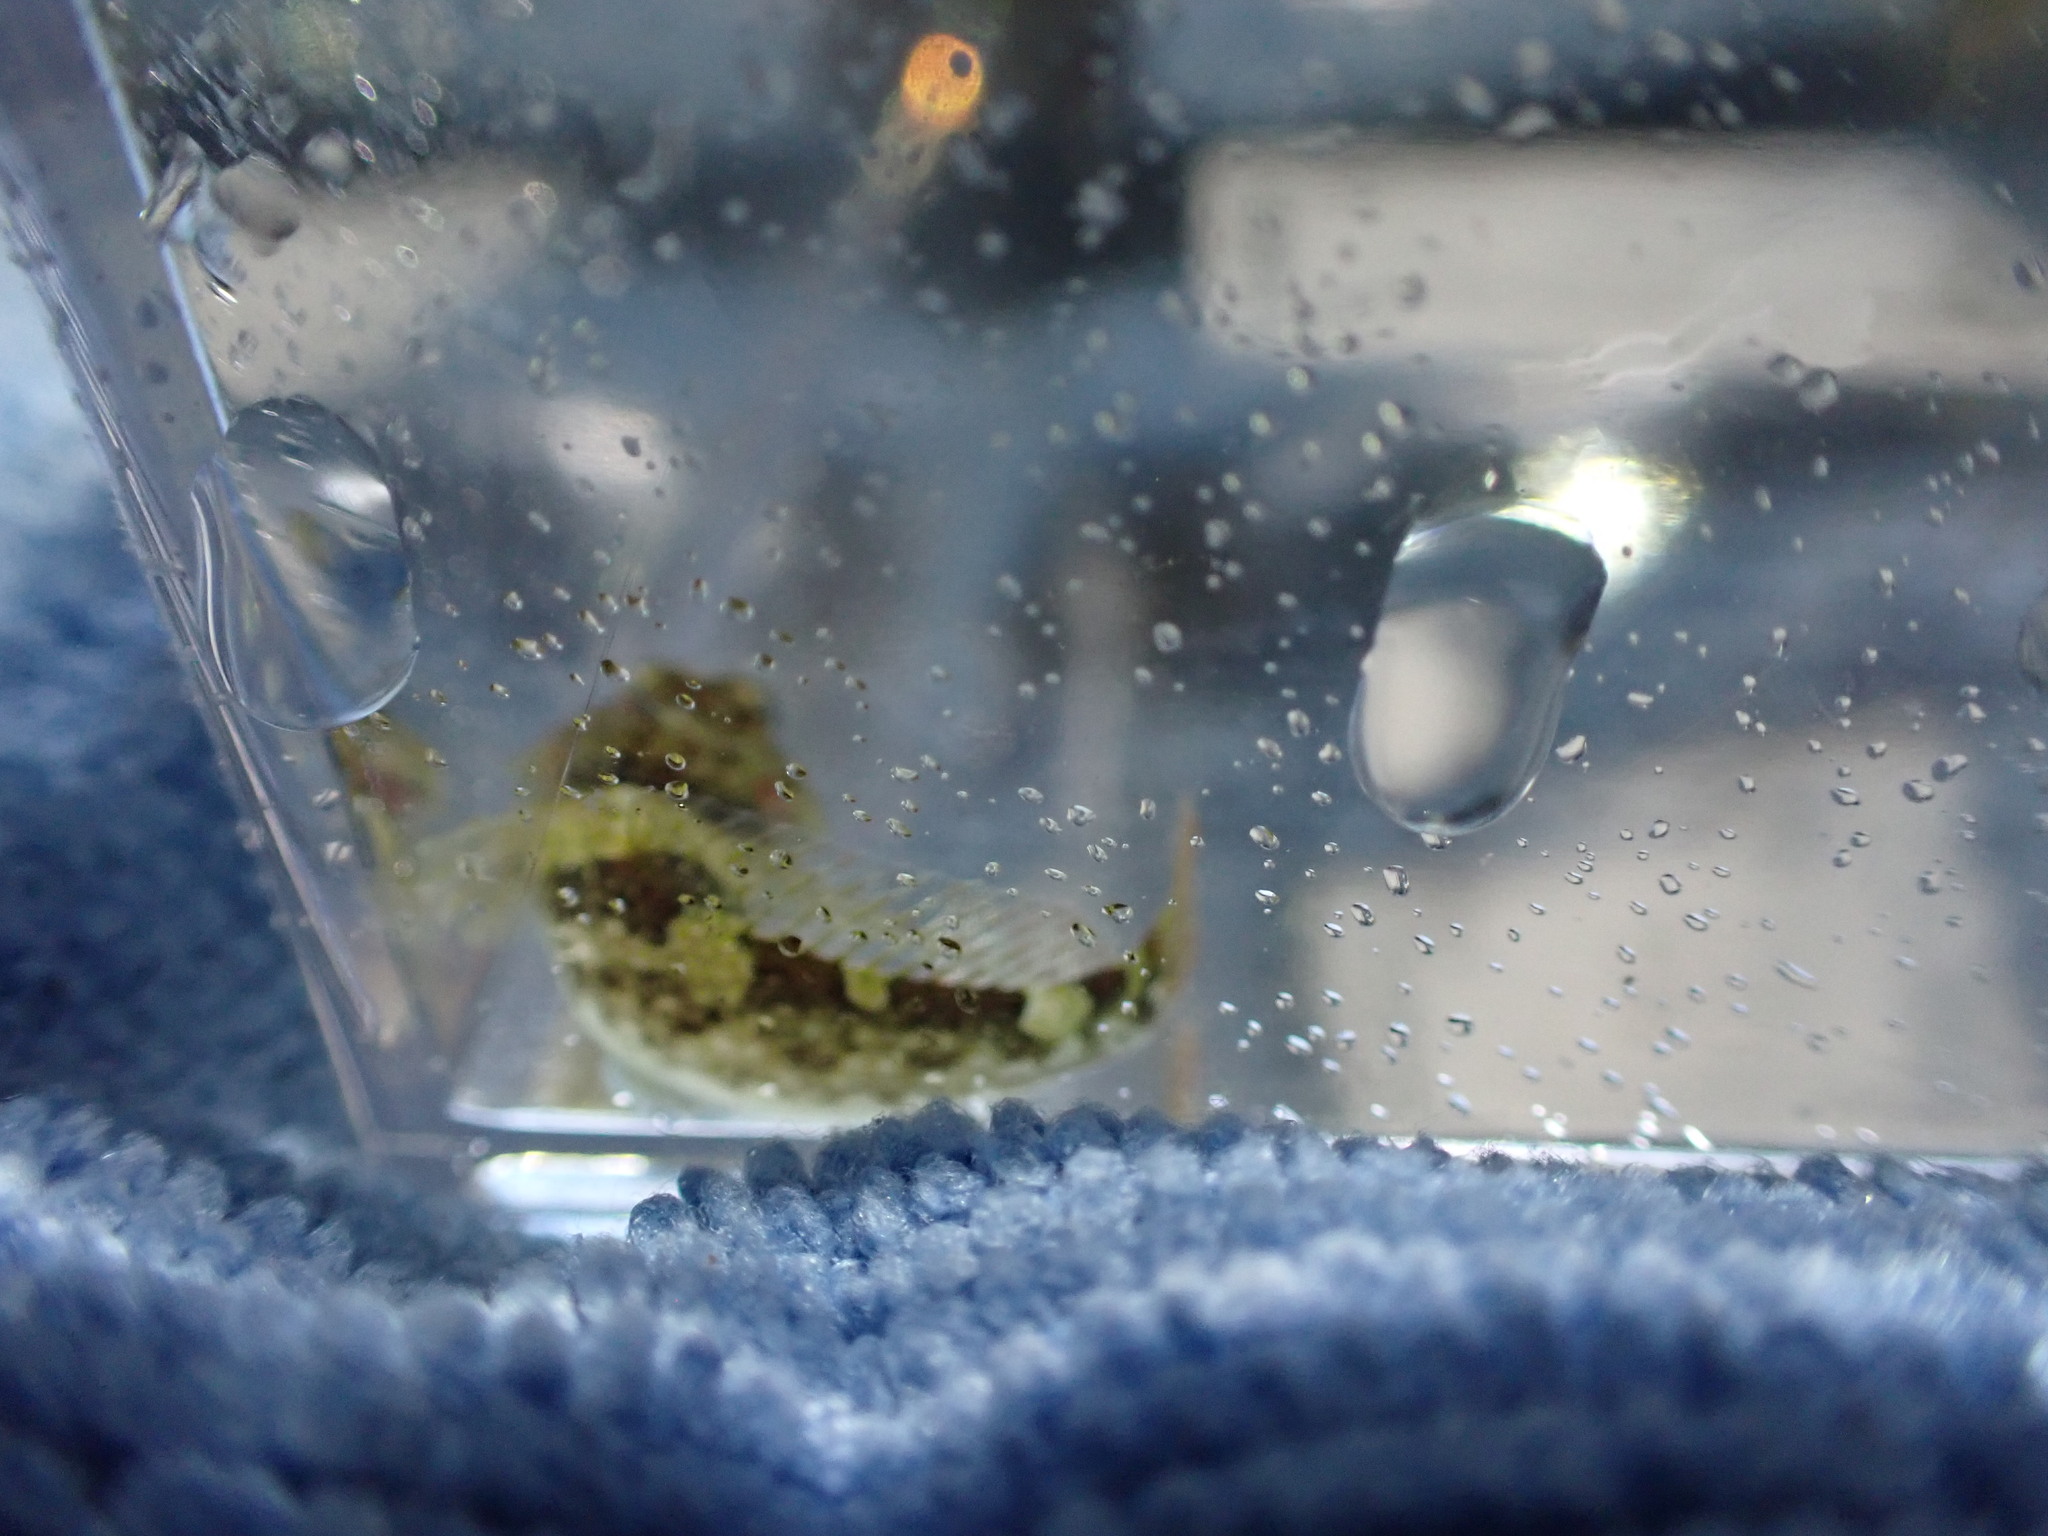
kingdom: Animalia
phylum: Chordata
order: Scorpaeniformes
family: Cottidae
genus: Oligocottus
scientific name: Oligocottus maculosus
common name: Tidepool sculpin
